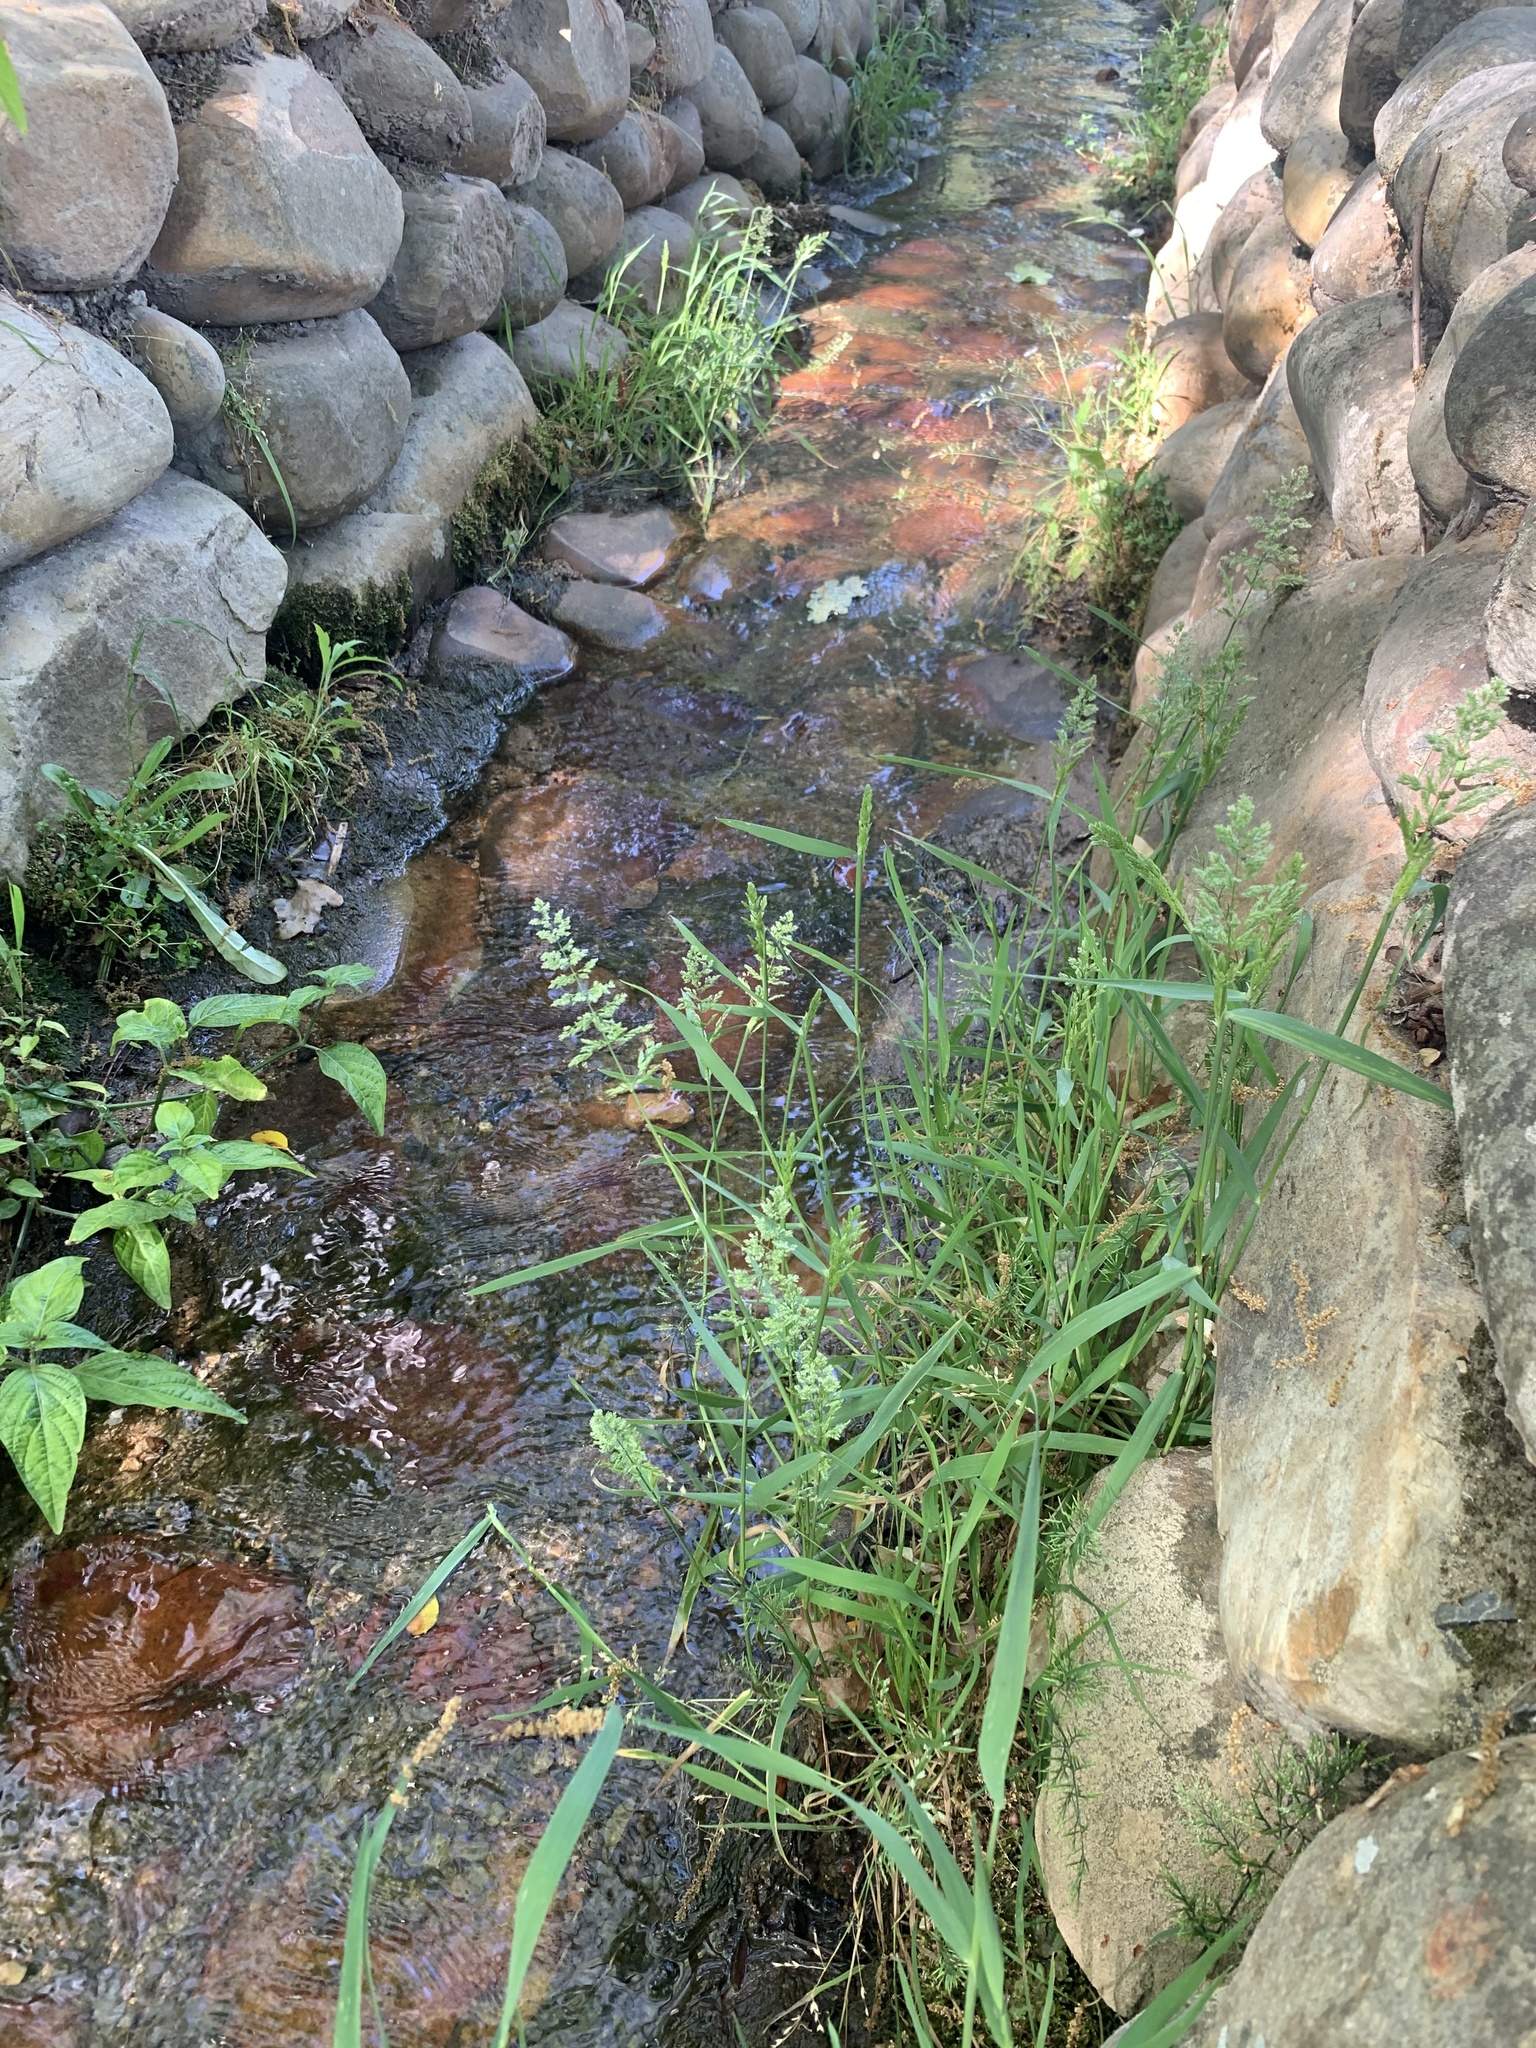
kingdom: Plantae
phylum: Tracheophyta
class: Liliopsida
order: Poales
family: Poaceae
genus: Polypogon
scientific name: Polypogon viridis
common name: Water bent
